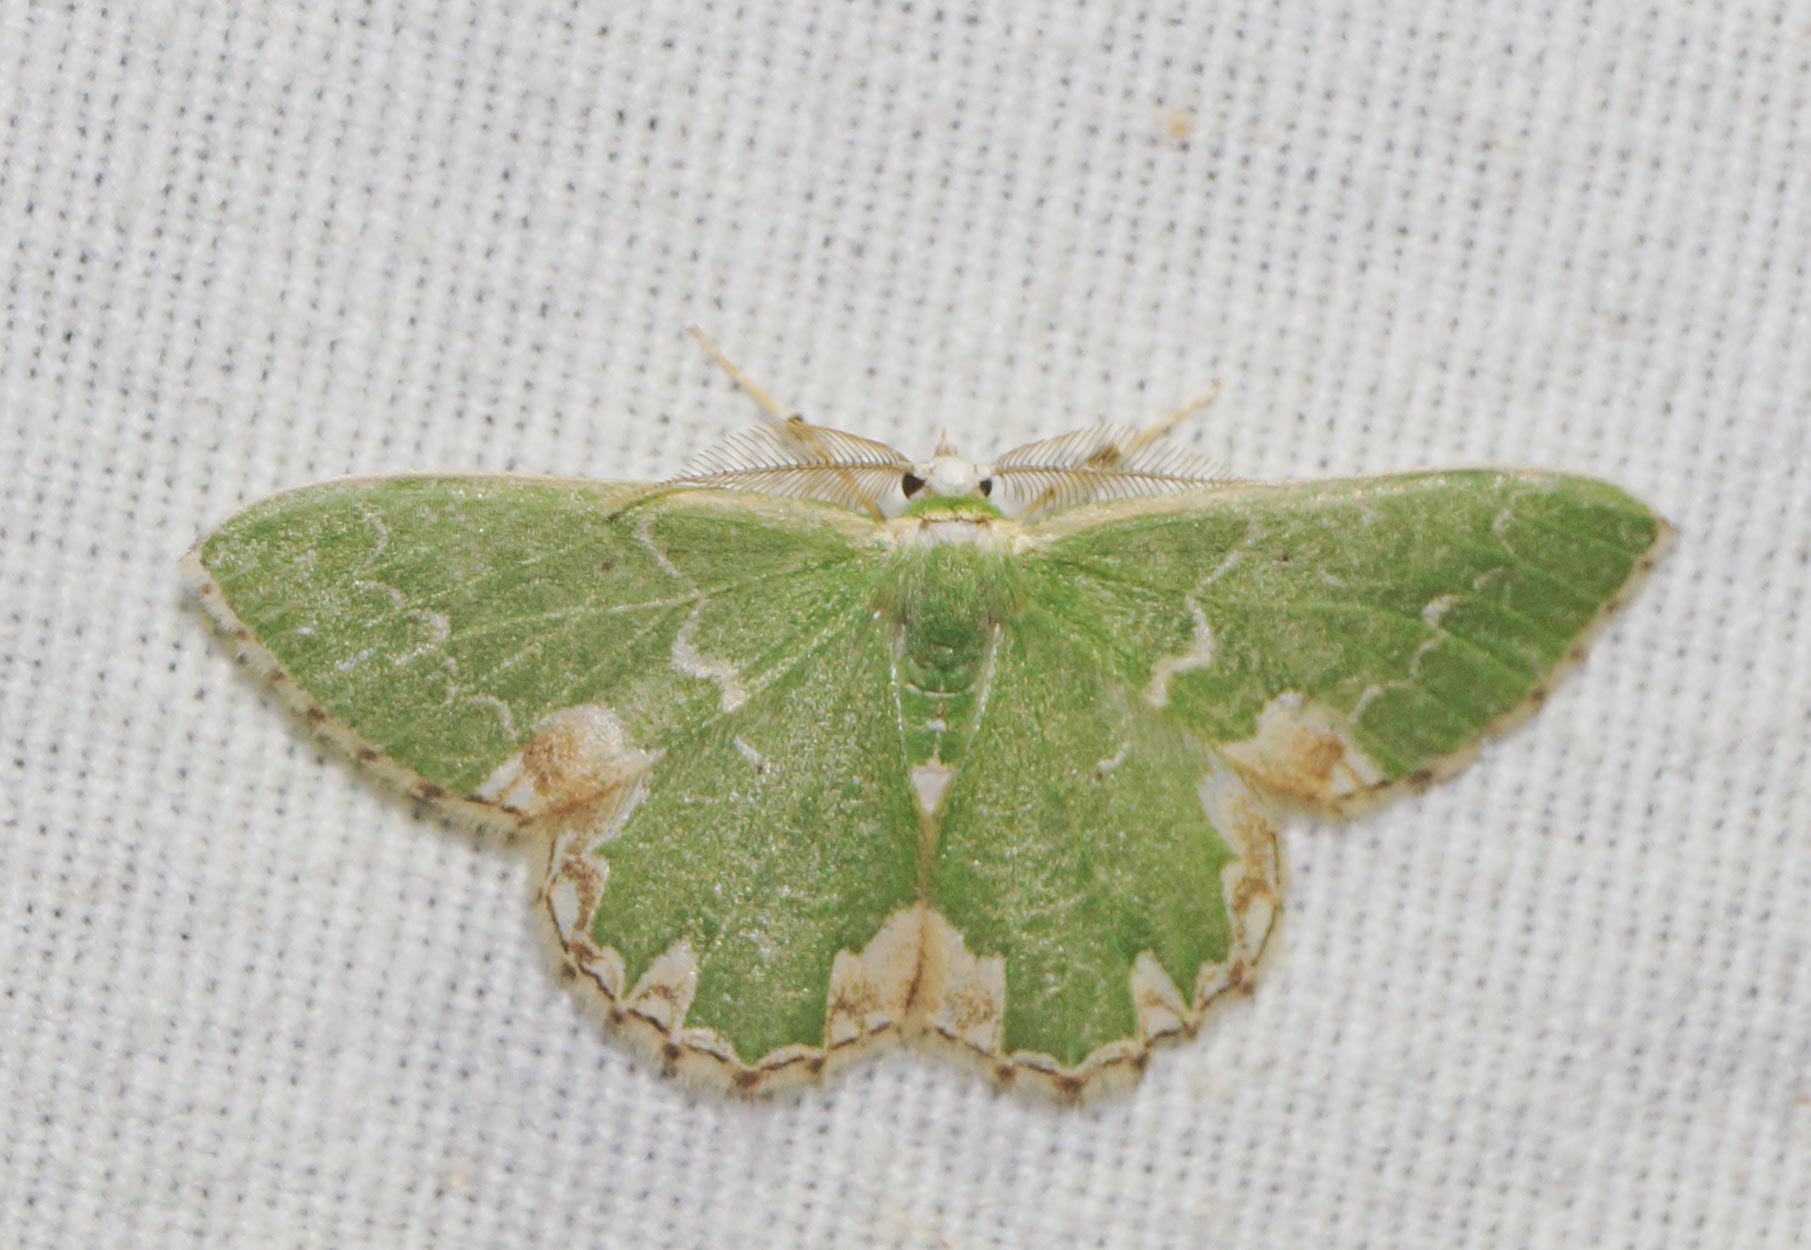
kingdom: Animalia
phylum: Arthropoda
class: Insecta
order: Lepidoptera
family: Geometridae
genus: Comibaena
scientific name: Comibaena bajularia
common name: Blotched emerald
